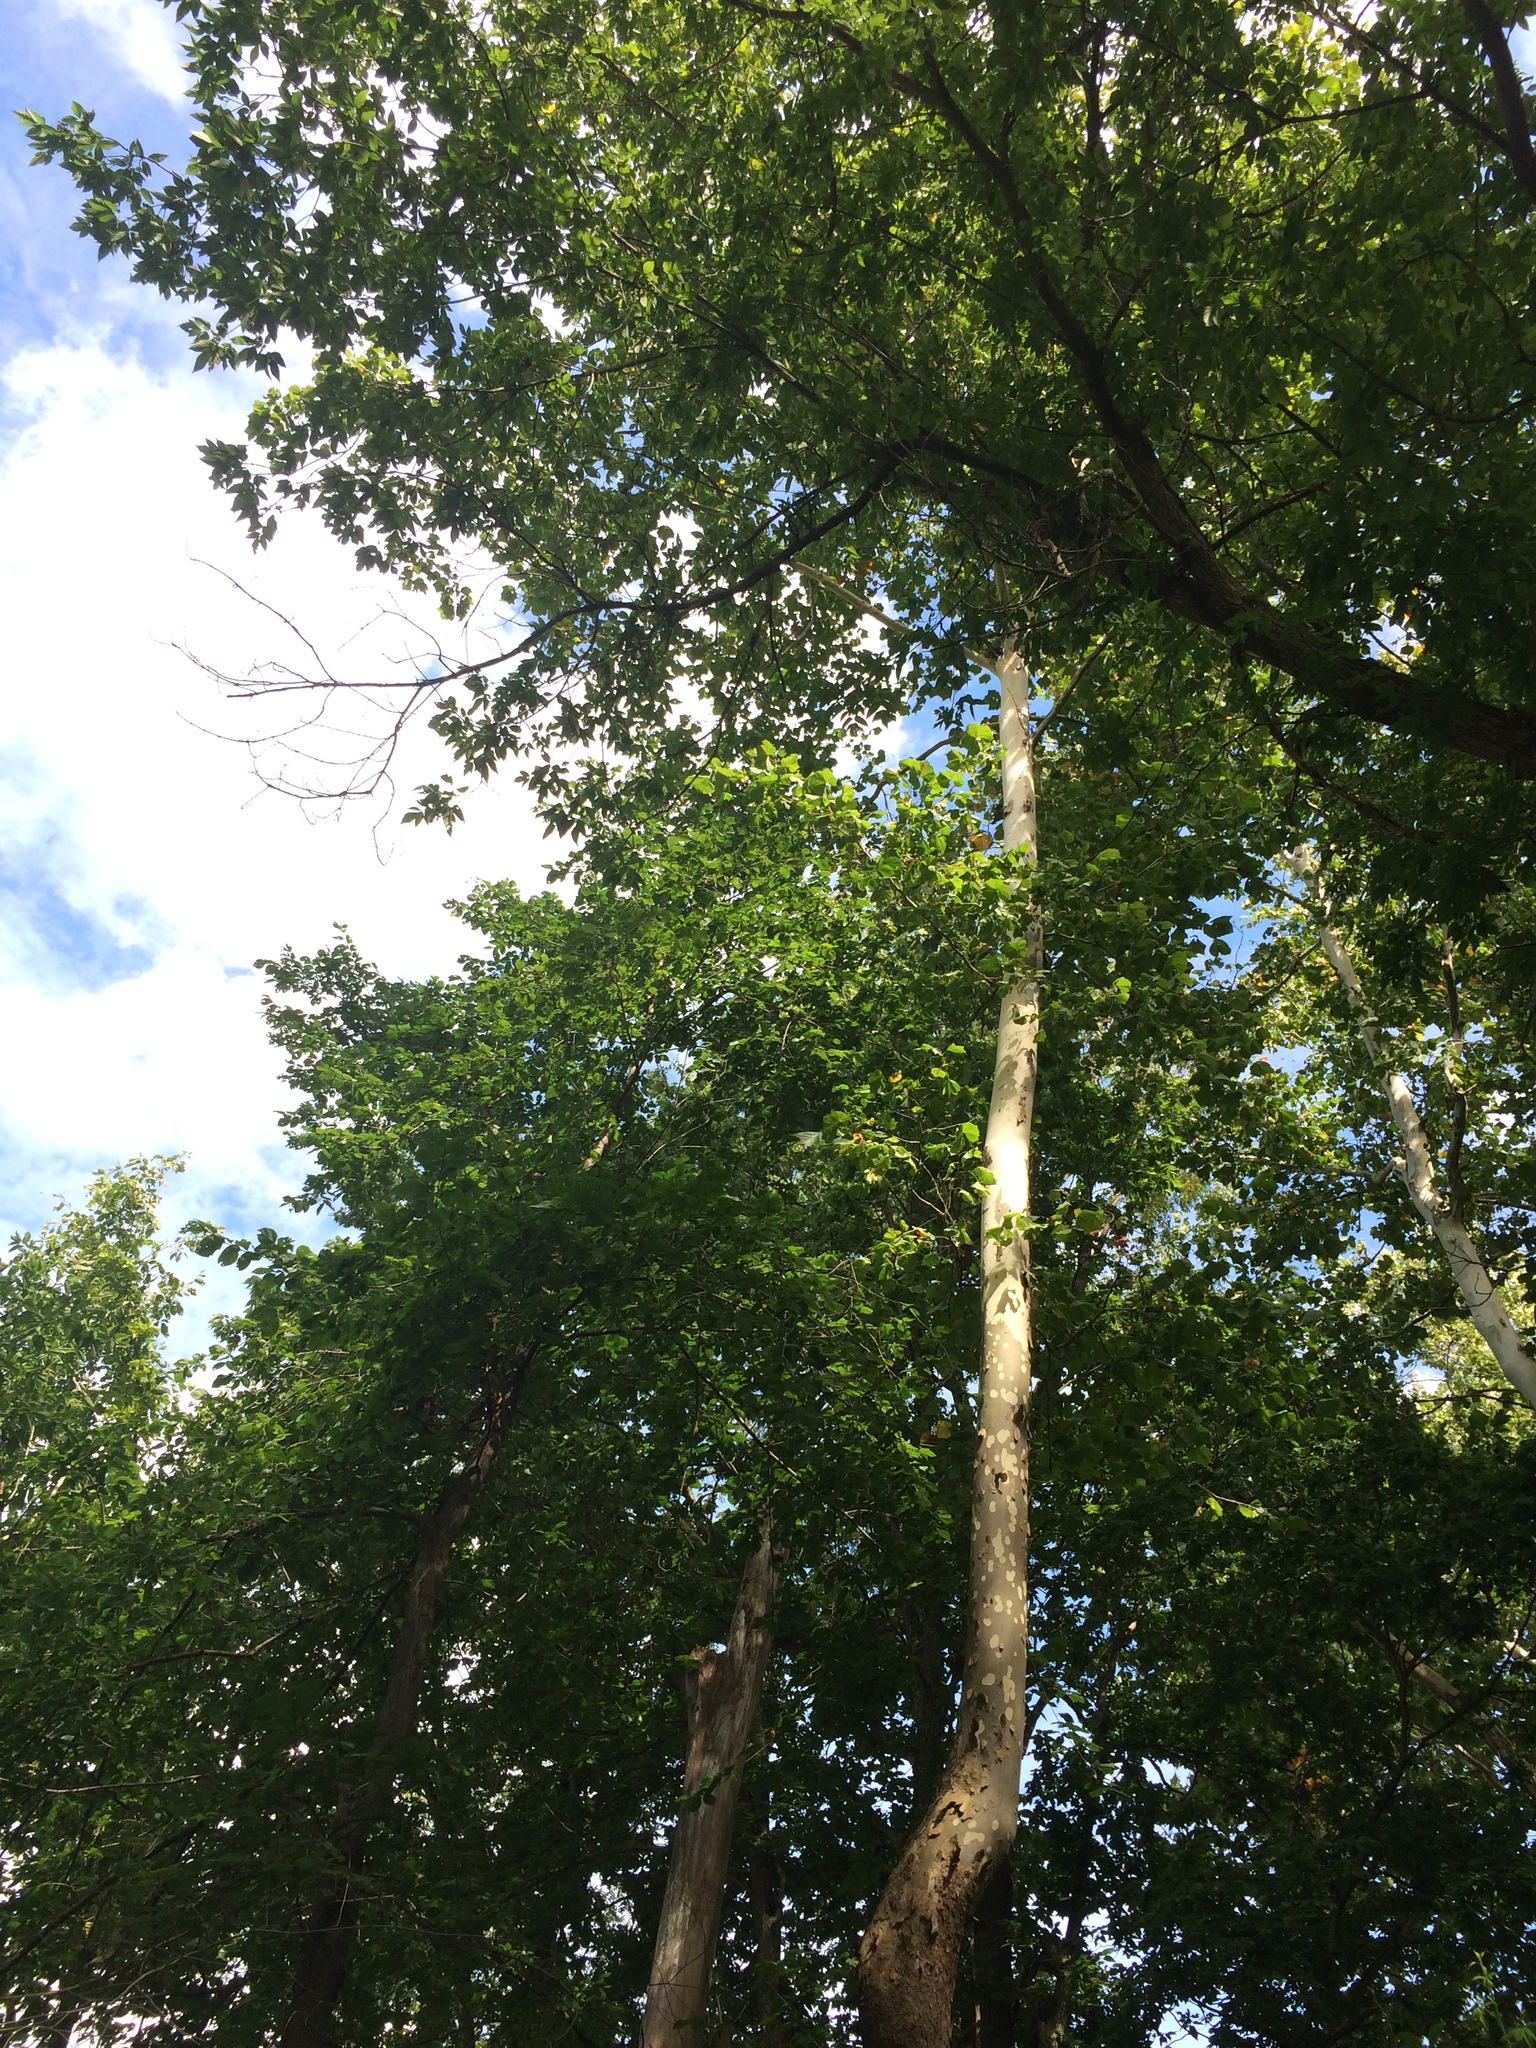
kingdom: Plantae
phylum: Tracheophyta
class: Magnoliopsida
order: Proteales
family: Platanaceae
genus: Platanus
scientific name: Platanus occidentalis
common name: American sycamore
